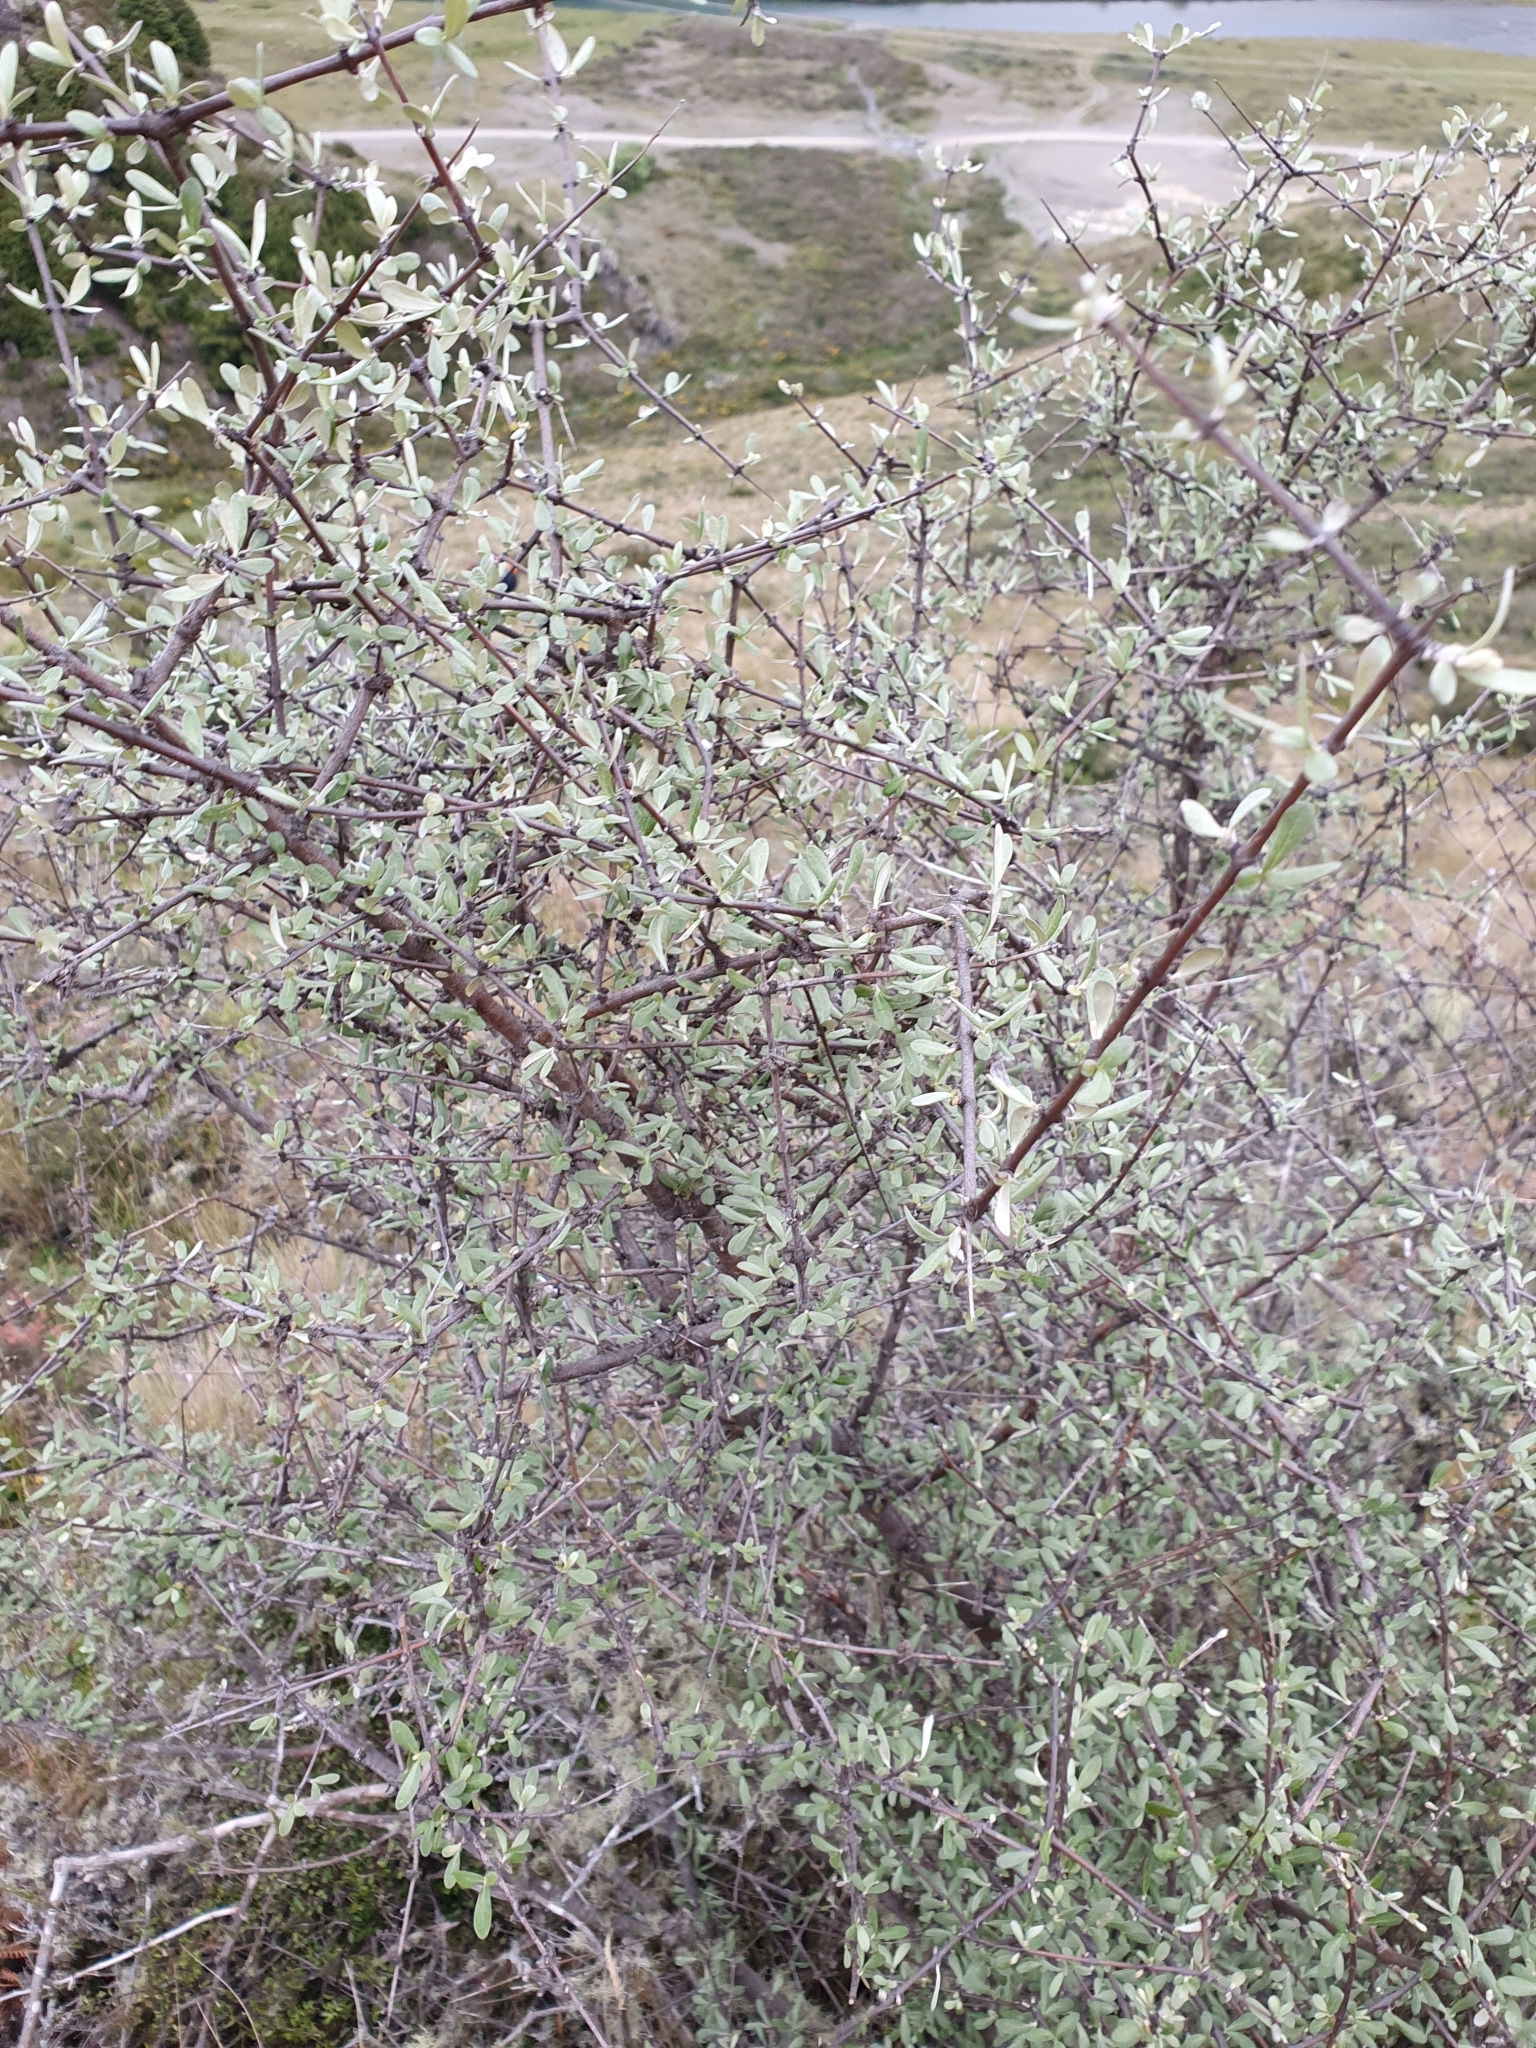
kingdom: Plantae
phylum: Tracheophyta
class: Magnoliopsida
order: Asterales
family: Asteraceae
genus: Olearia
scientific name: Olearia odorata
